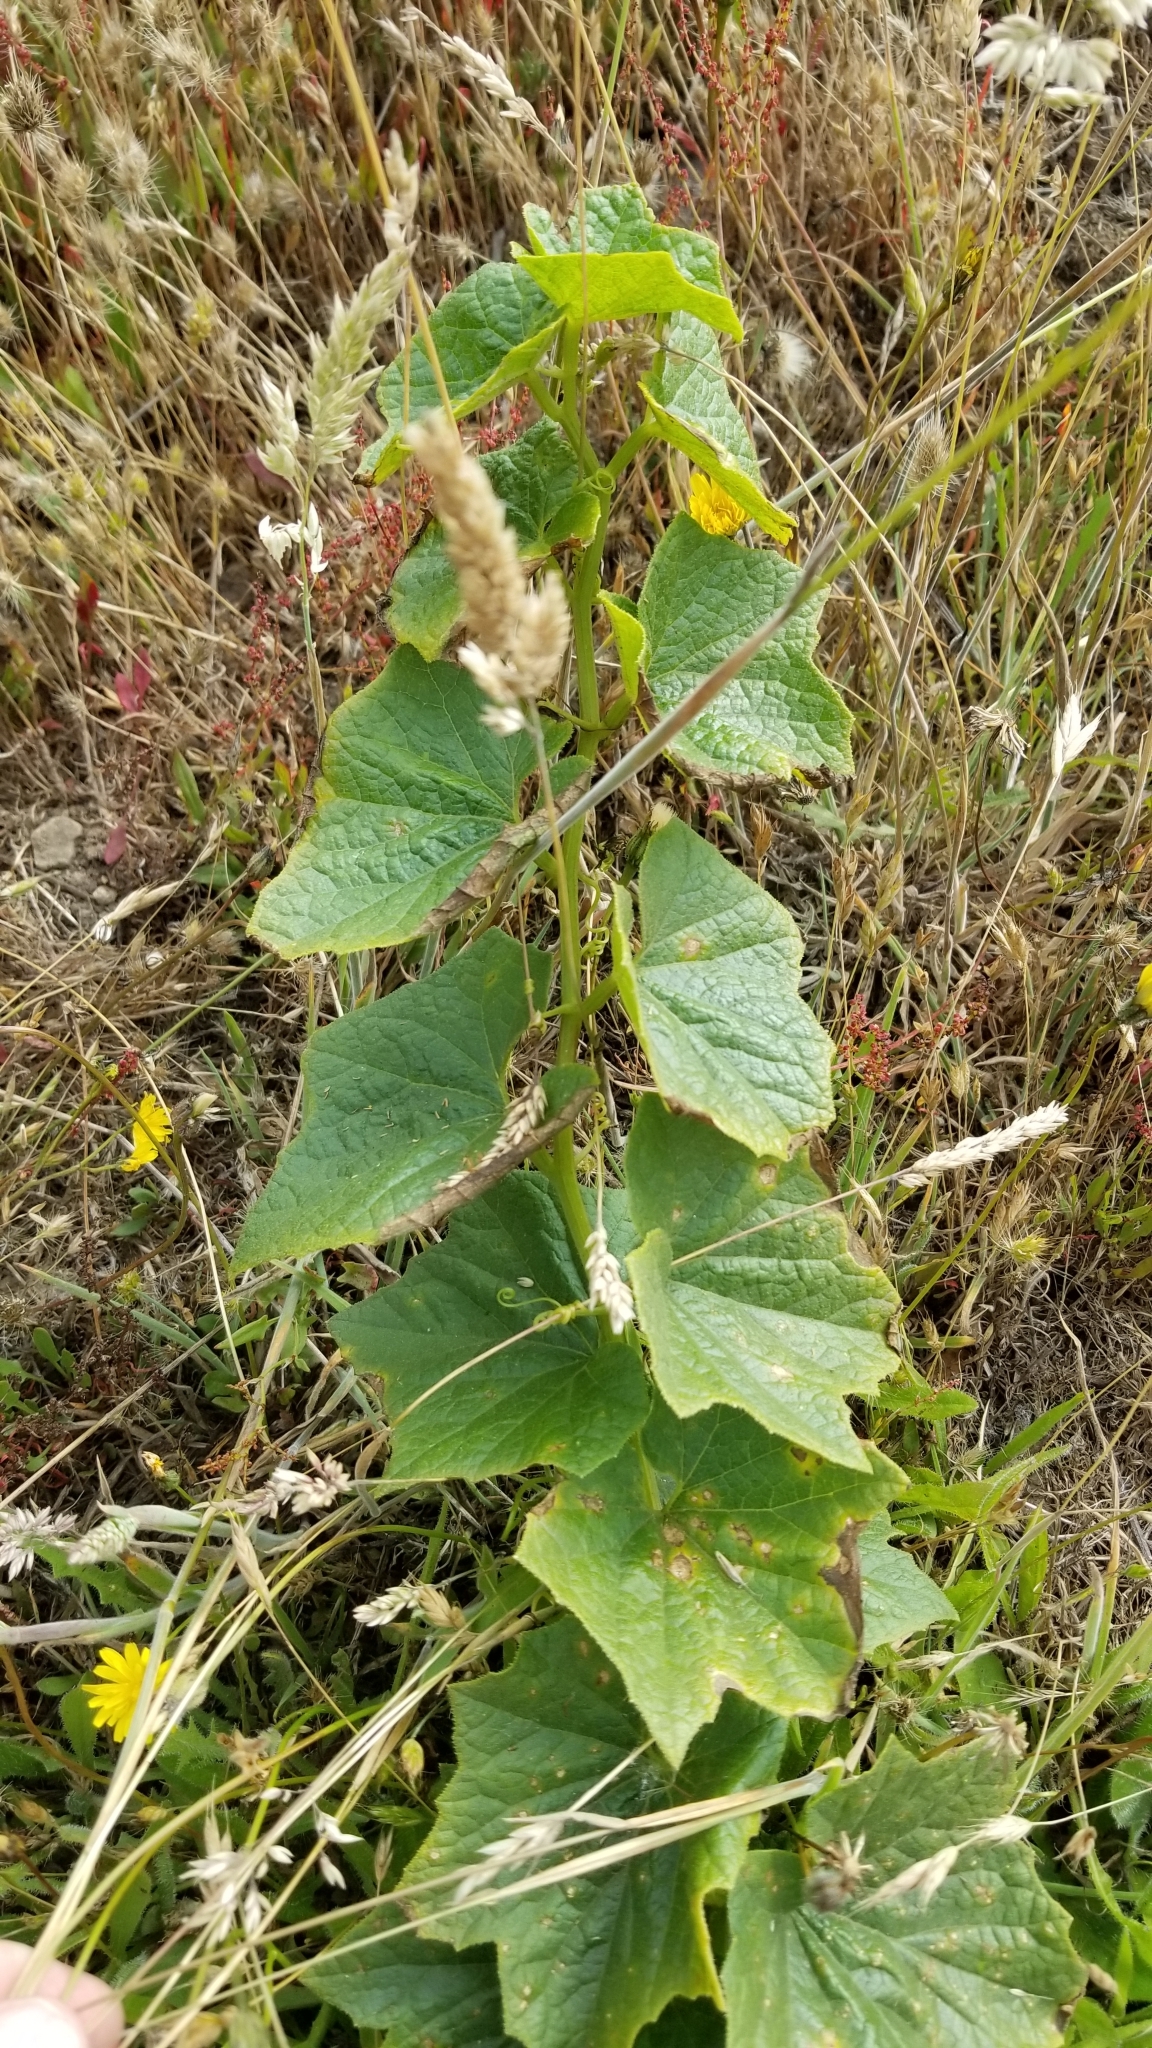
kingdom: Plantae
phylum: Tracheophyta
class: Magnoliopsida
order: Cucurbitales
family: Cucurbitaceae
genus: Marah
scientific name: Marah oregana
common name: Coastal manroot
